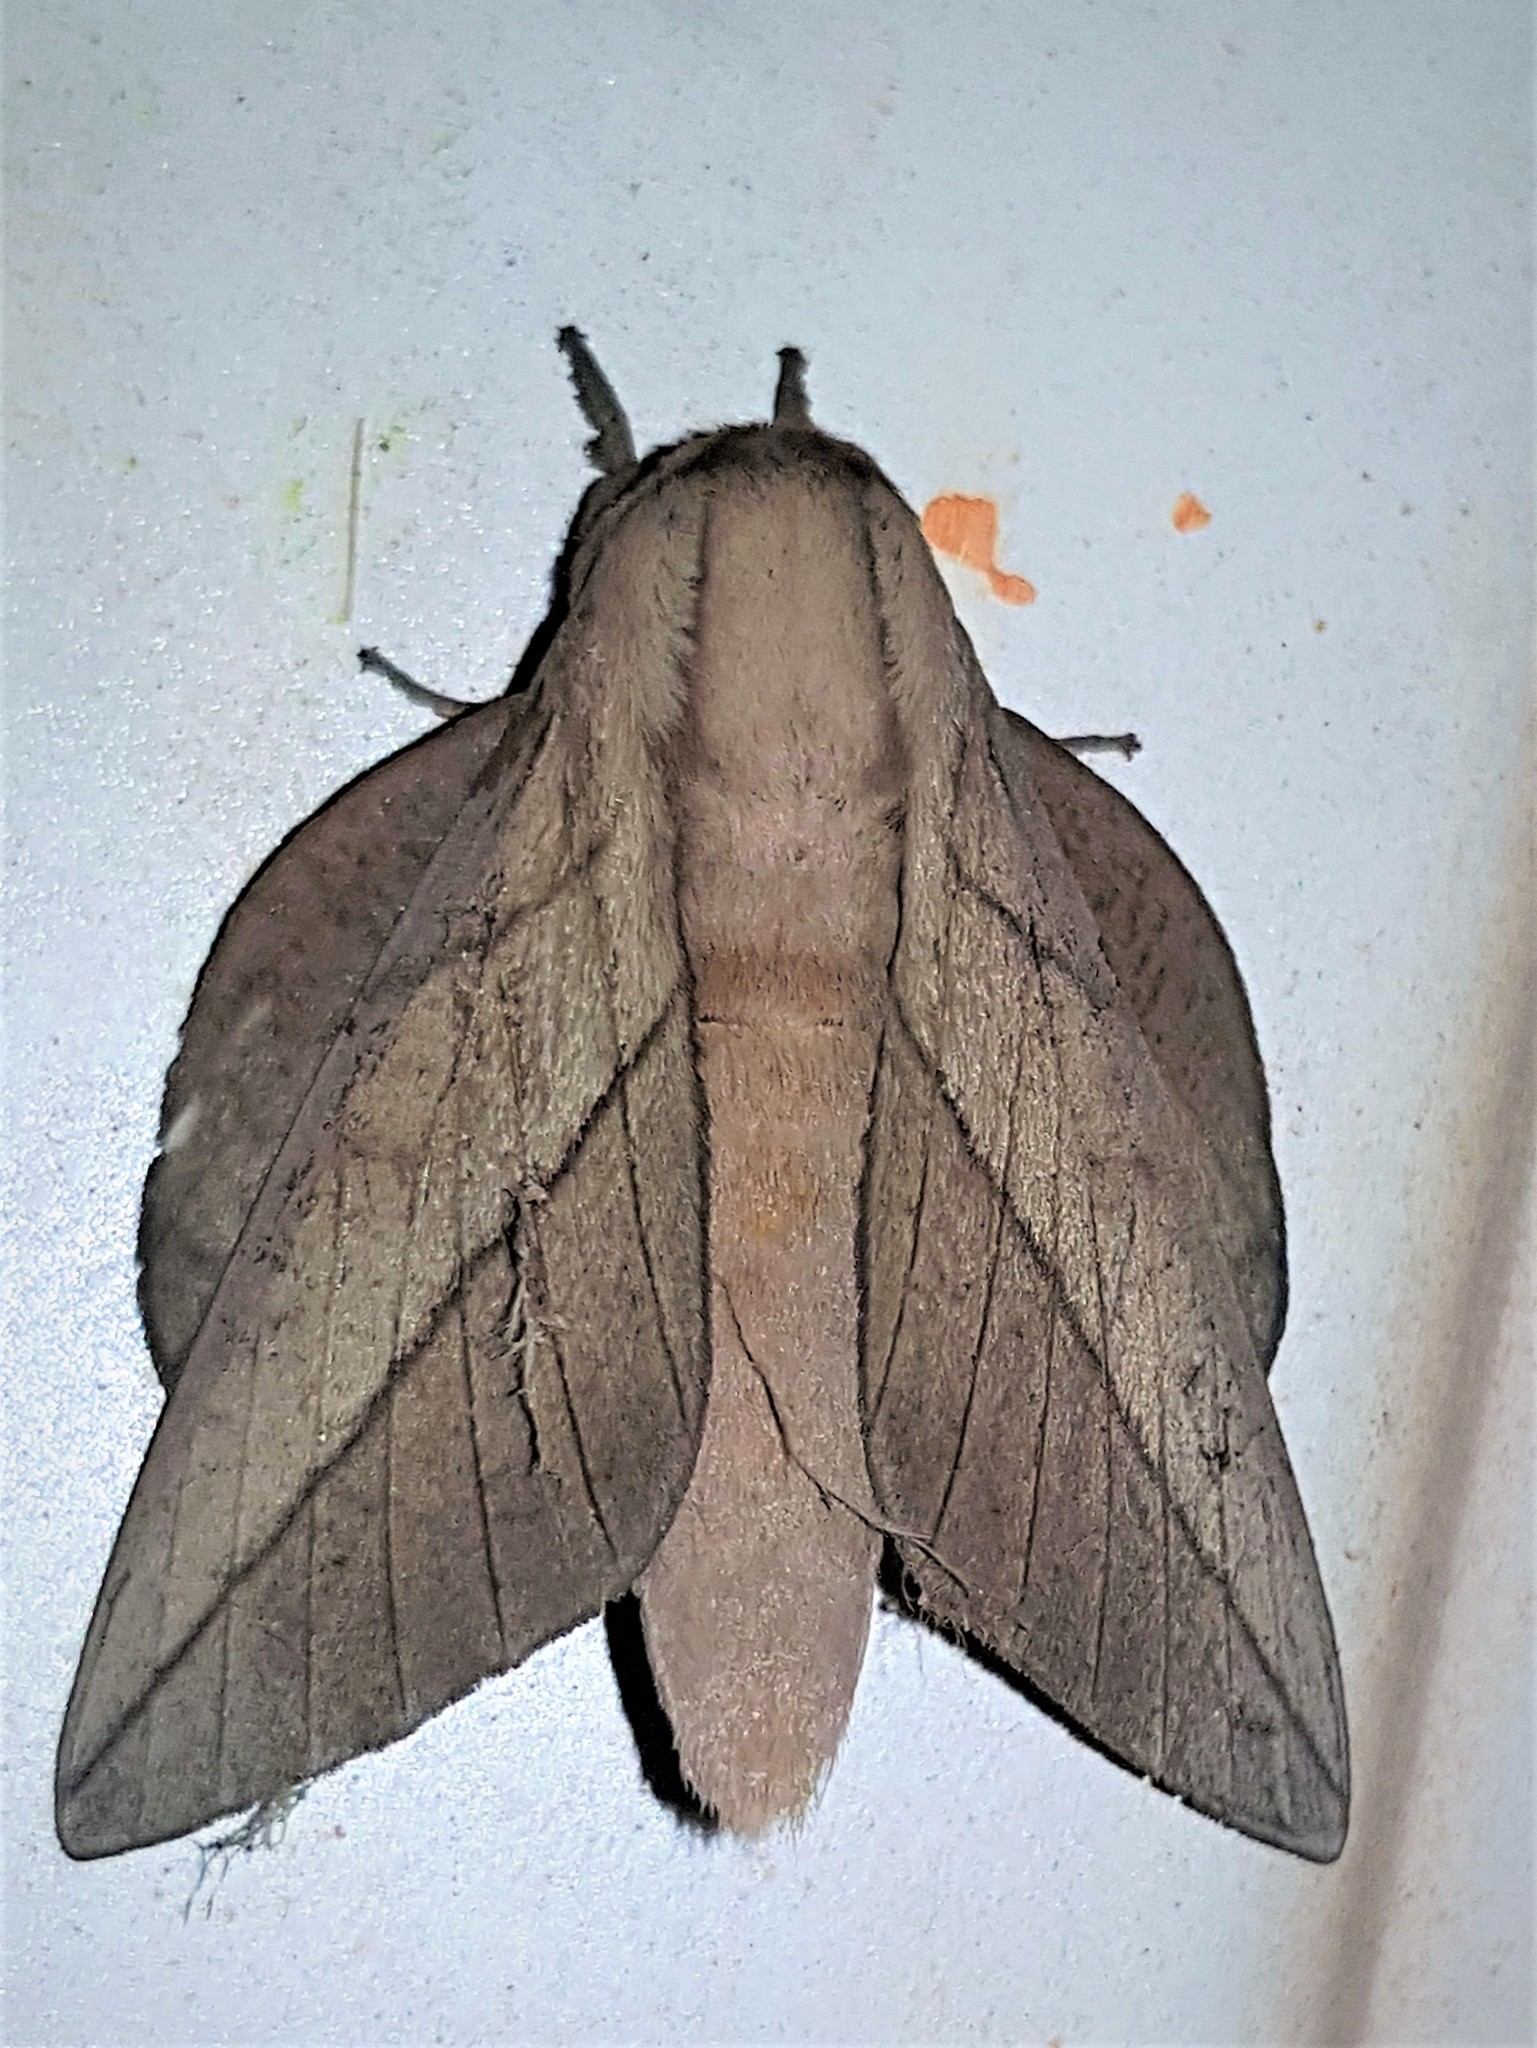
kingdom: Animalia
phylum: Arthropoda
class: Insecta
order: Lepidoptera
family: Saturniidae
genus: Citioica
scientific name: Citioica anthonilis
